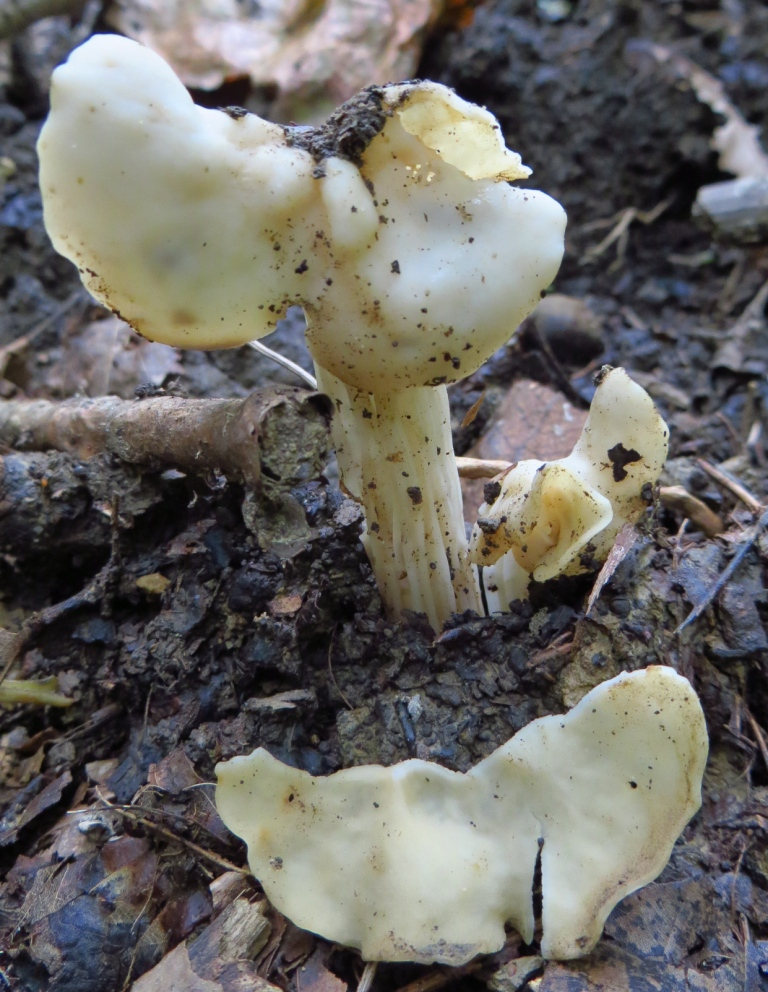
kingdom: Fungi
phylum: Ascomycota
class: Pezizomycetes
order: Pezizales
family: Helvellaceae
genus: Helvella
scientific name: Helvella crispa
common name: White saddle
